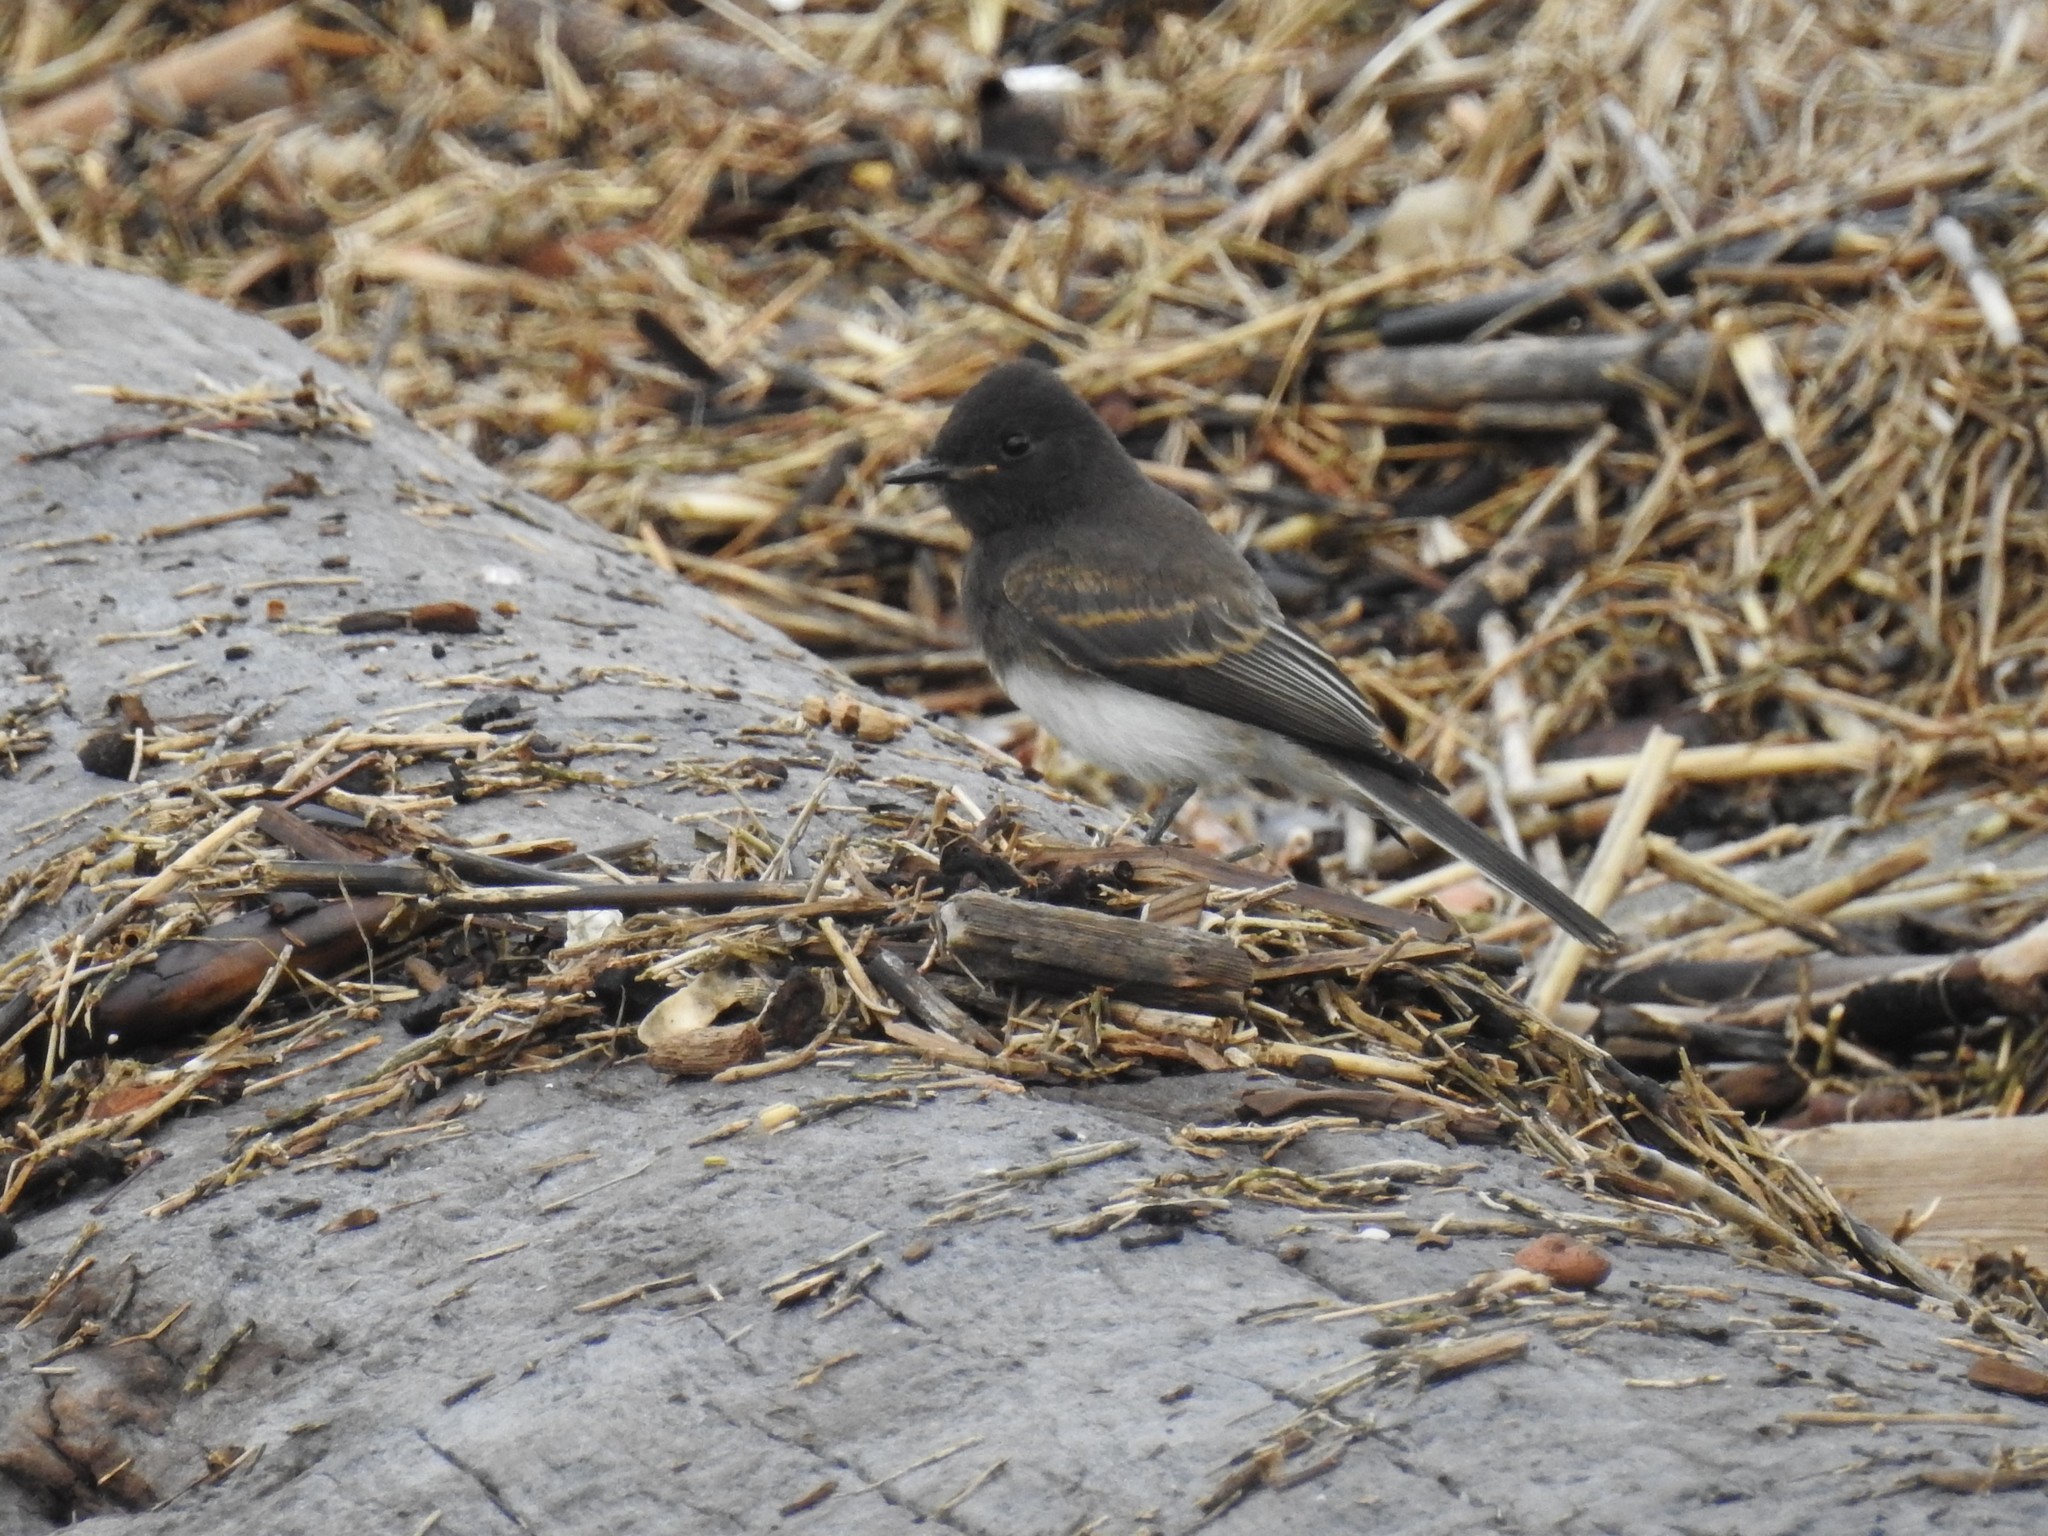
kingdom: Animalia
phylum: Chordata
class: Aves
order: Passeriformes
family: Tyrannidae
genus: Sayornis
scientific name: Sayornis nigricans
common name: Black phoebe
